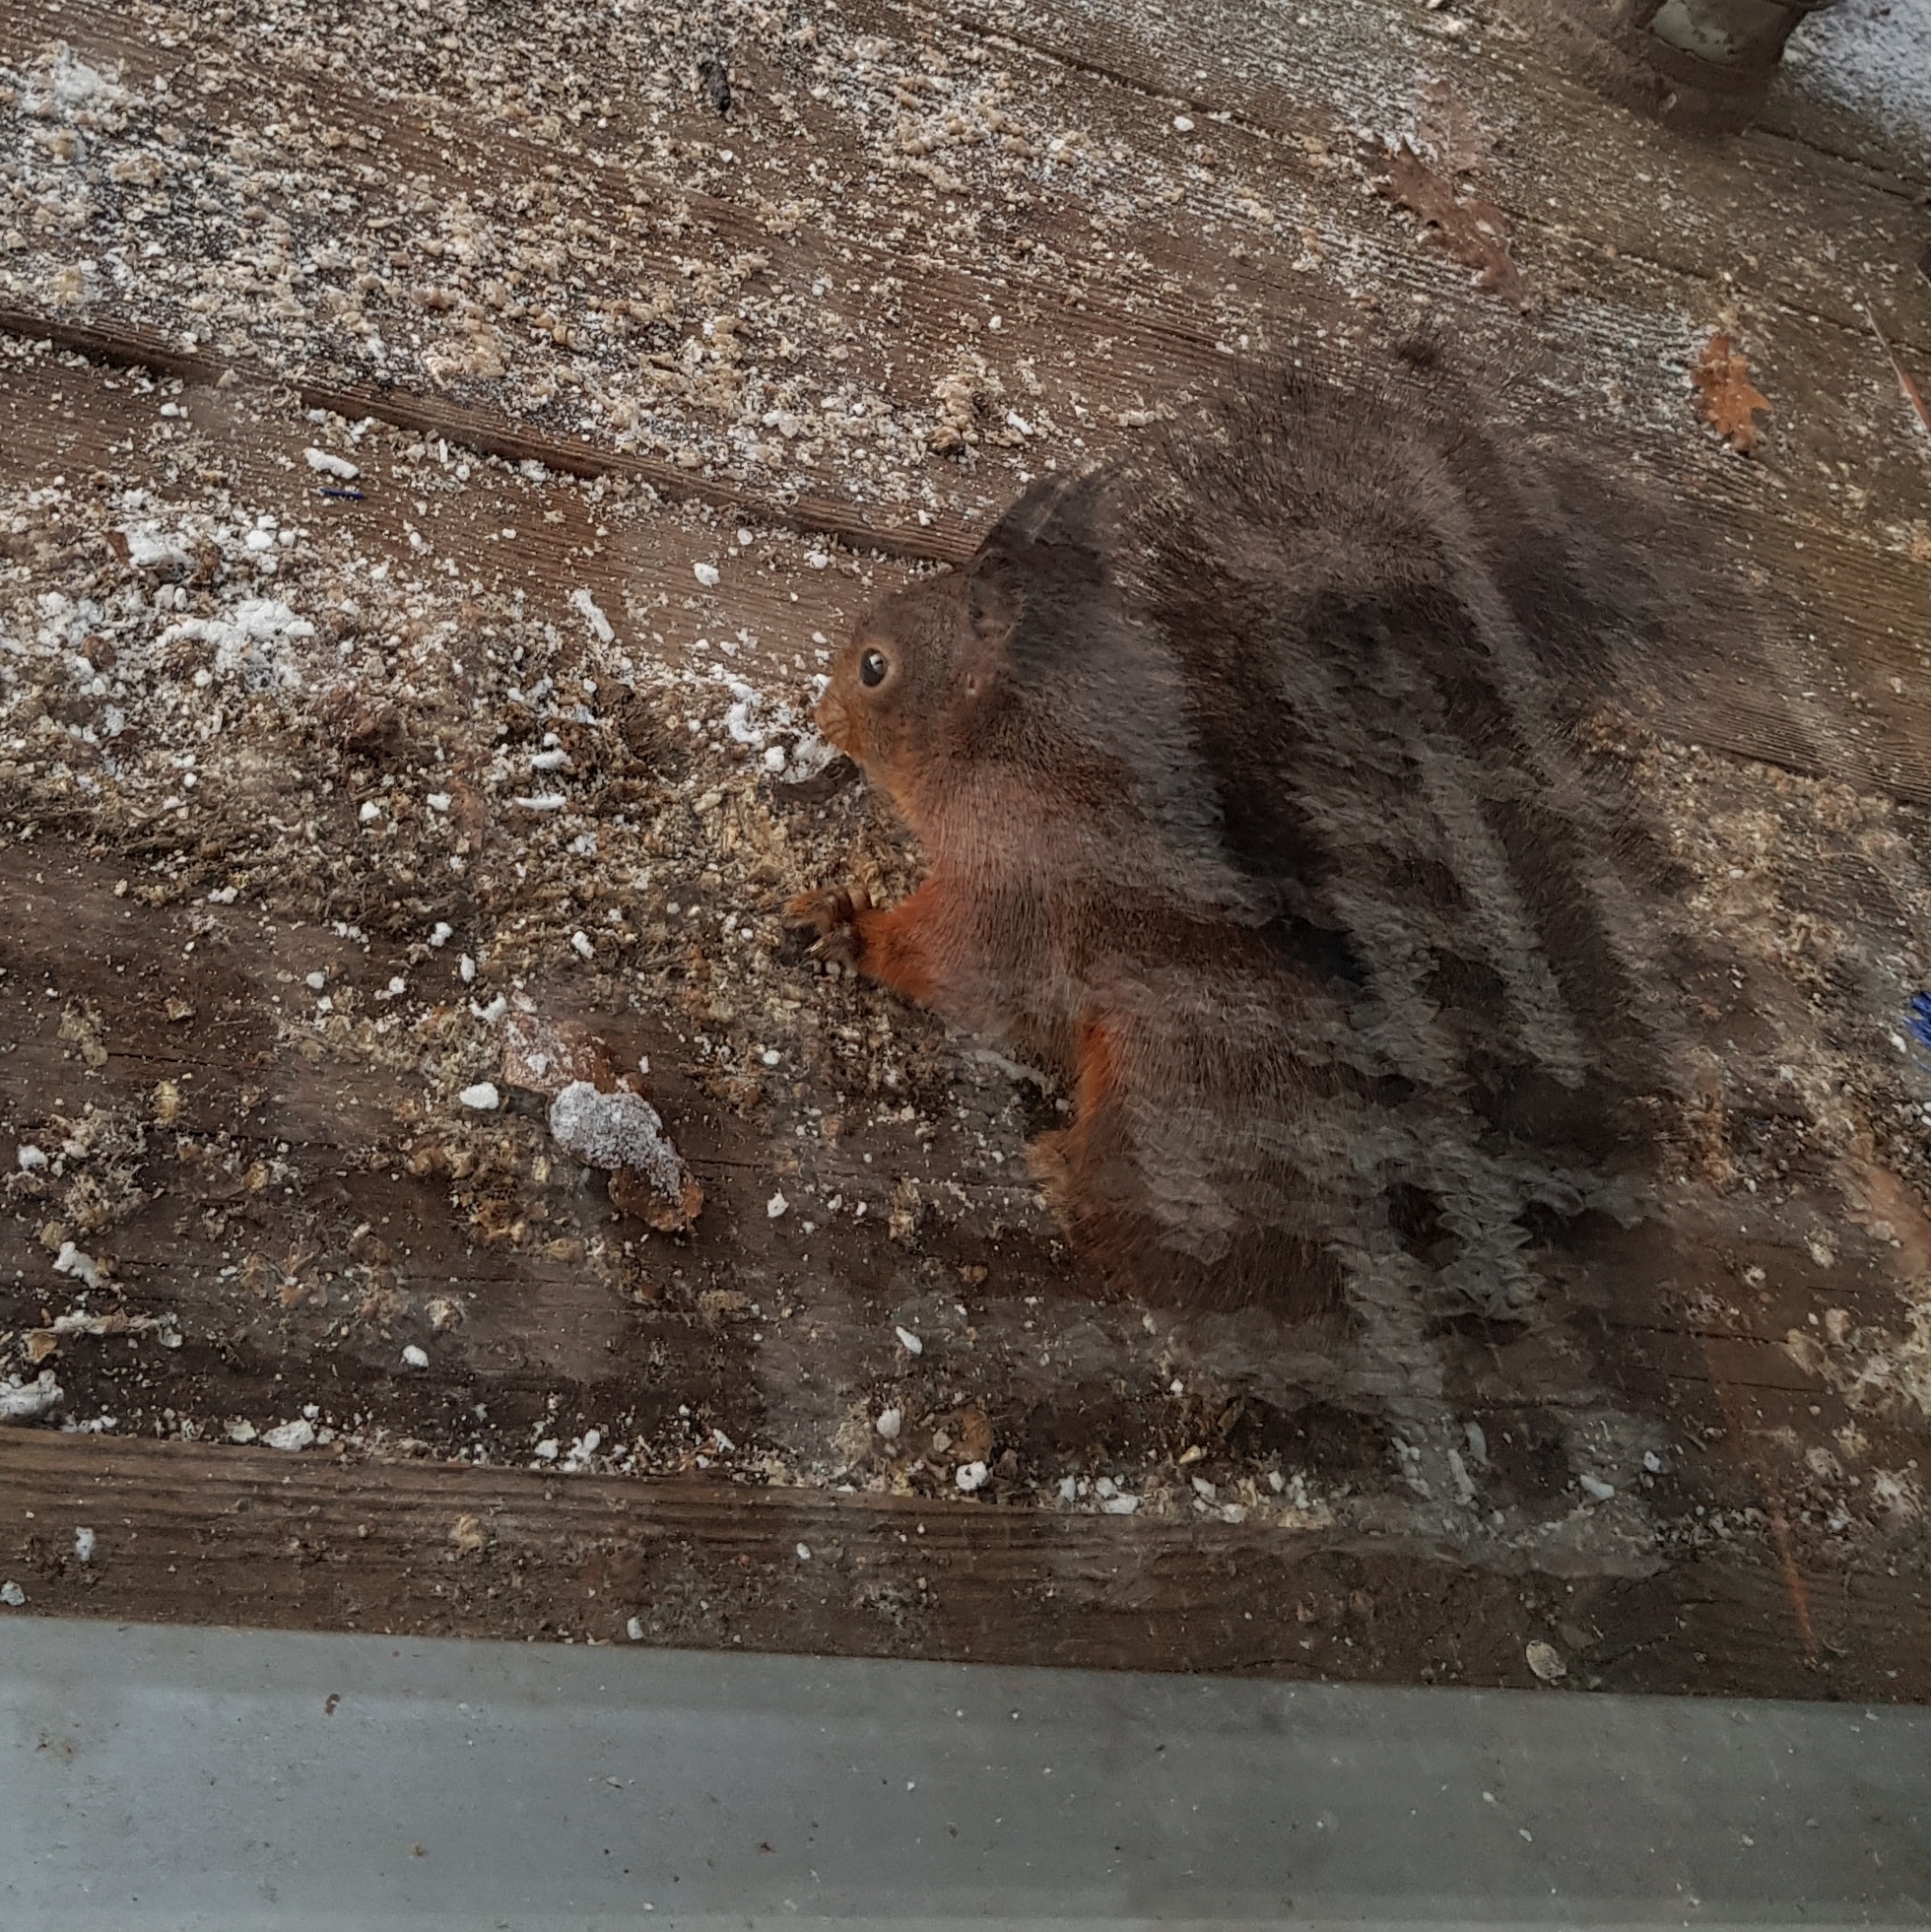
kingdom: Animalia
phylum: Chordata
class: Mammalia
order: Rodentia
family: Sciuridae
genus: Sciurus
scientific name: Sciurus vulgaris
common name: Eurasian red squirrel
